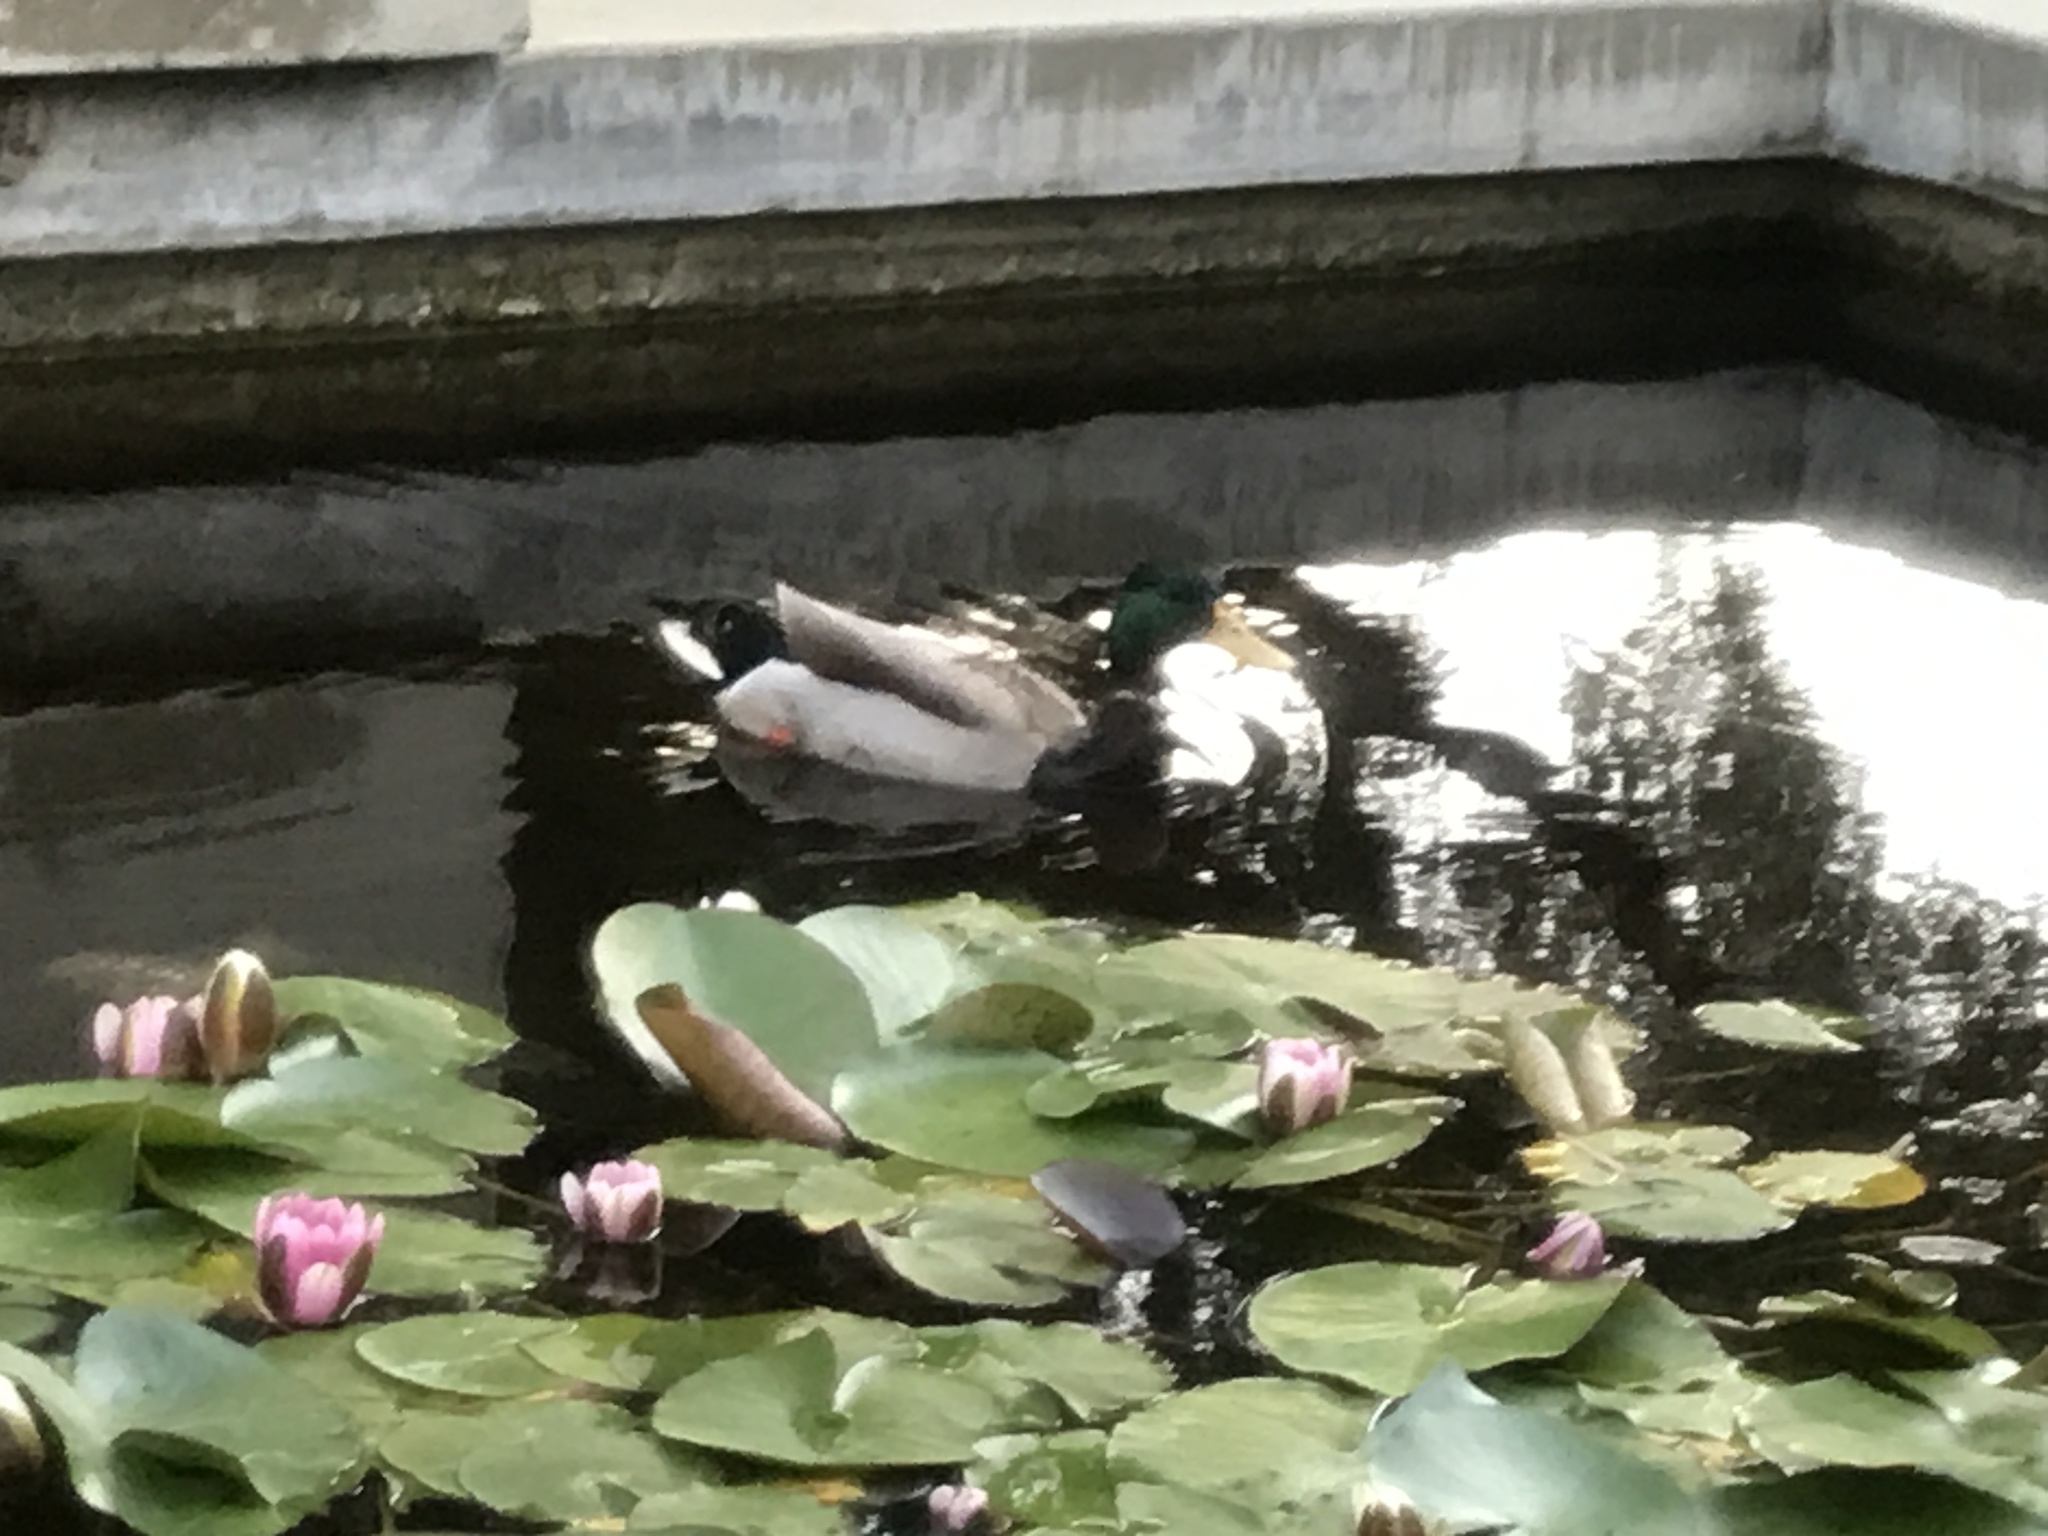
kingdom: Animalia
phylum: Chordata
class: Aves
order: Anseriformes
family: Anatidae
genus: Anas
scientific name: Anas platyrhynchos
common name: Mallard
